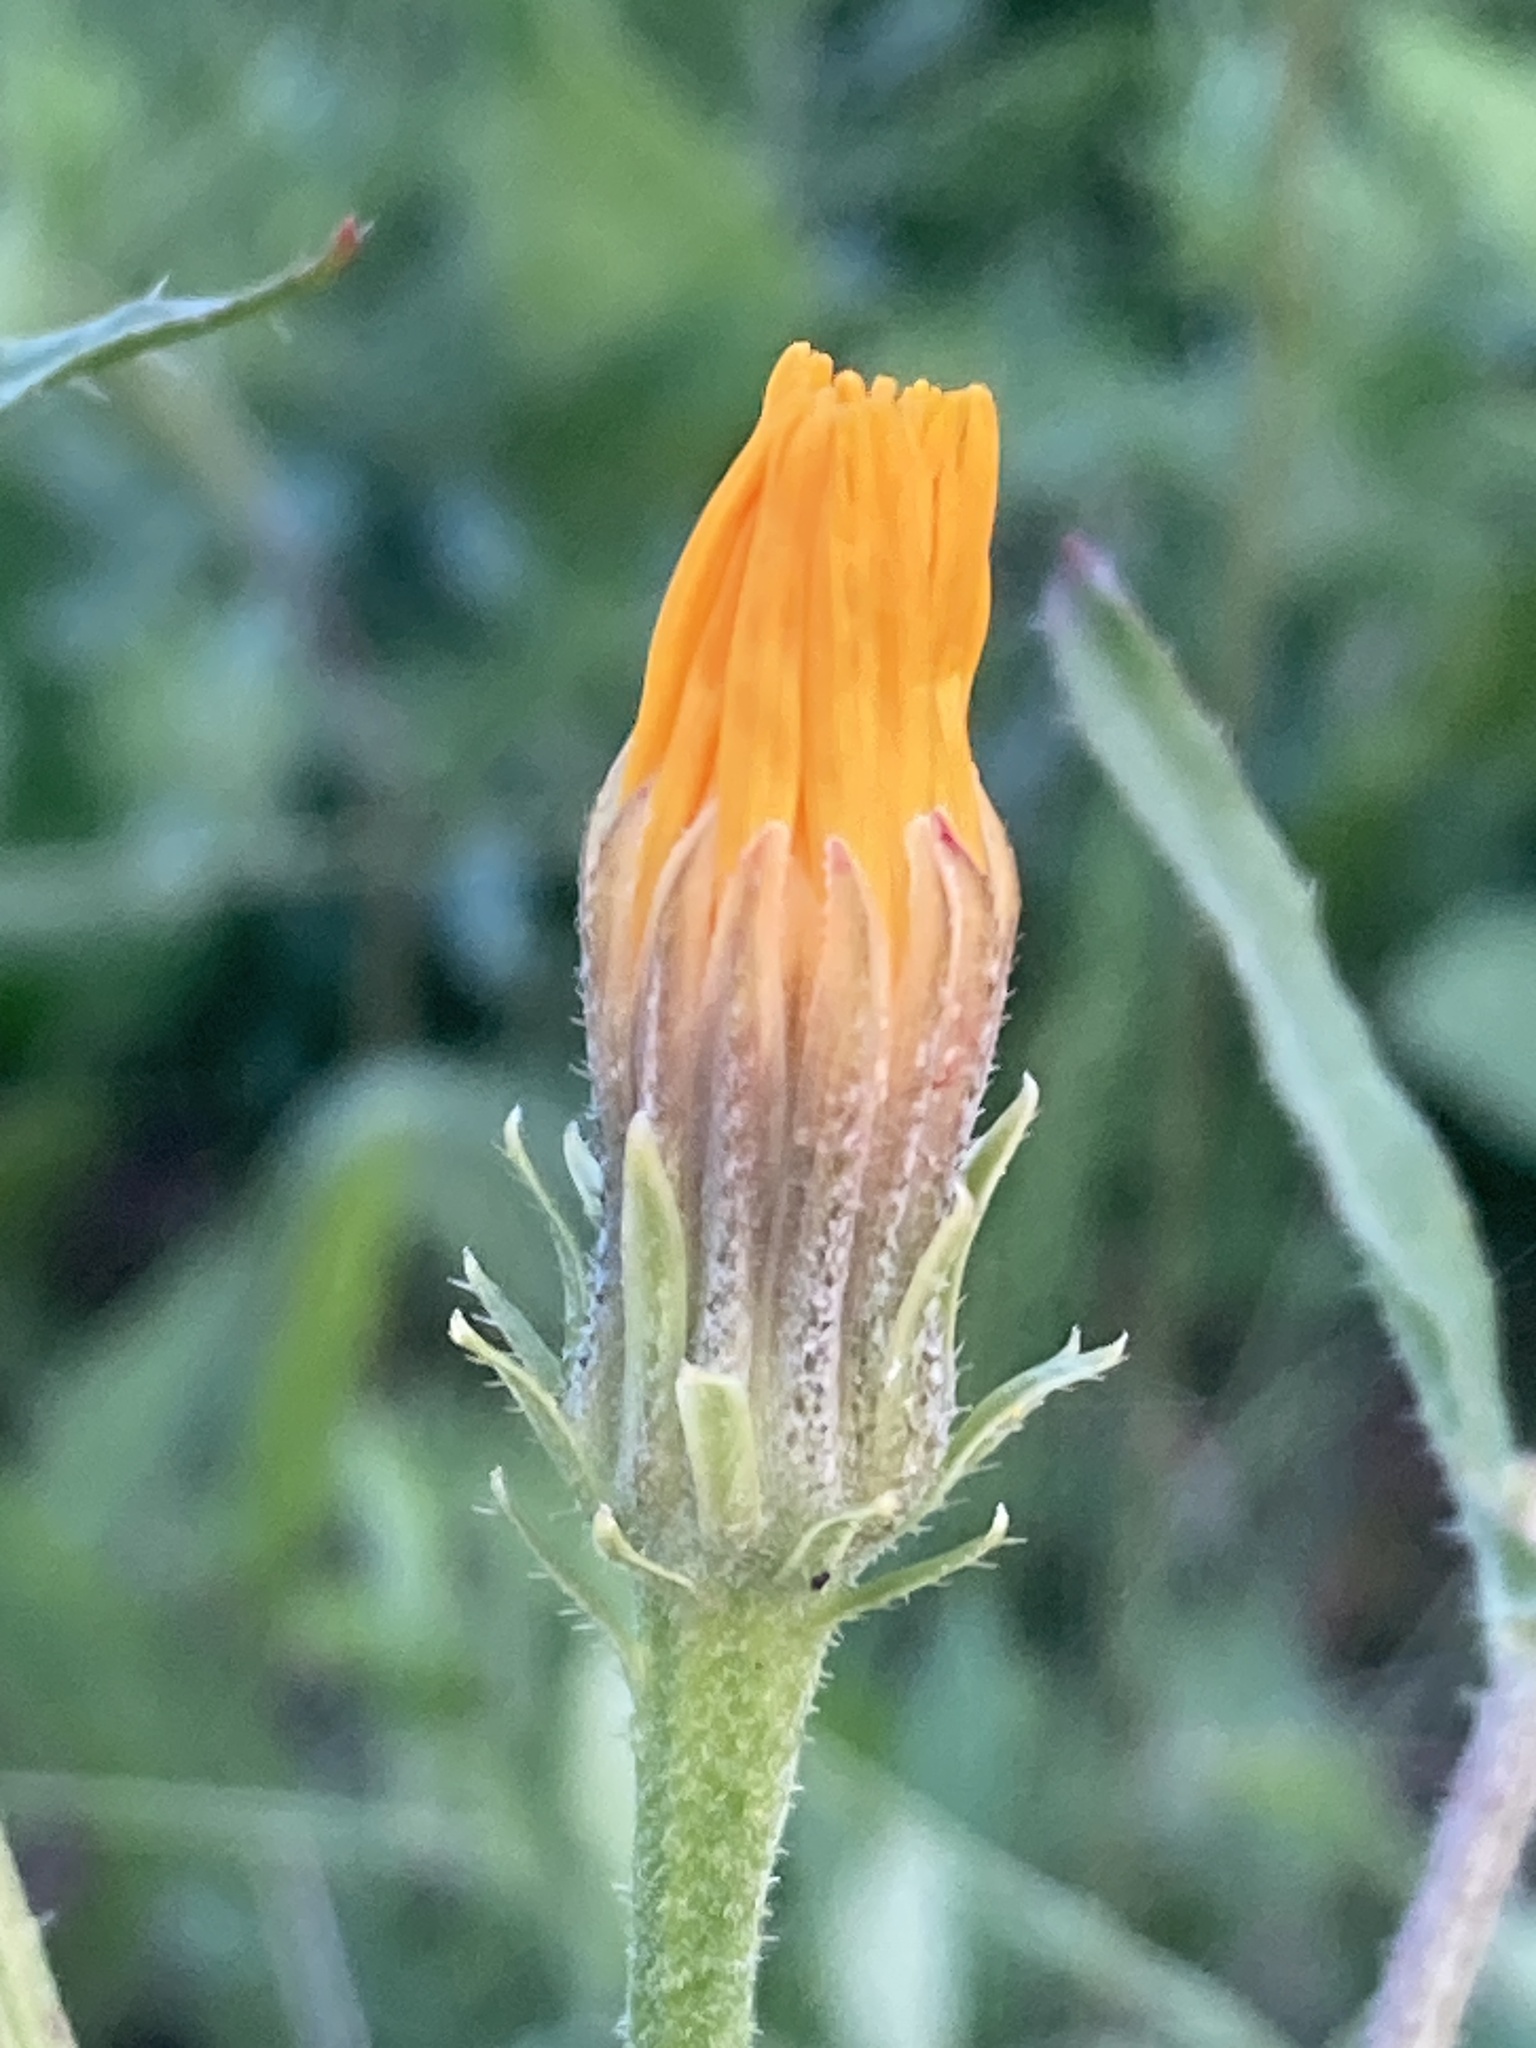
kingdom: Plantae
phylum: Tracheophyta
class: Magnoliopsida
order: Asterales
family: Asteraceae
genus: Picris
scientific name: Picris hieracioides
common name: Hawkweed oxtongue
